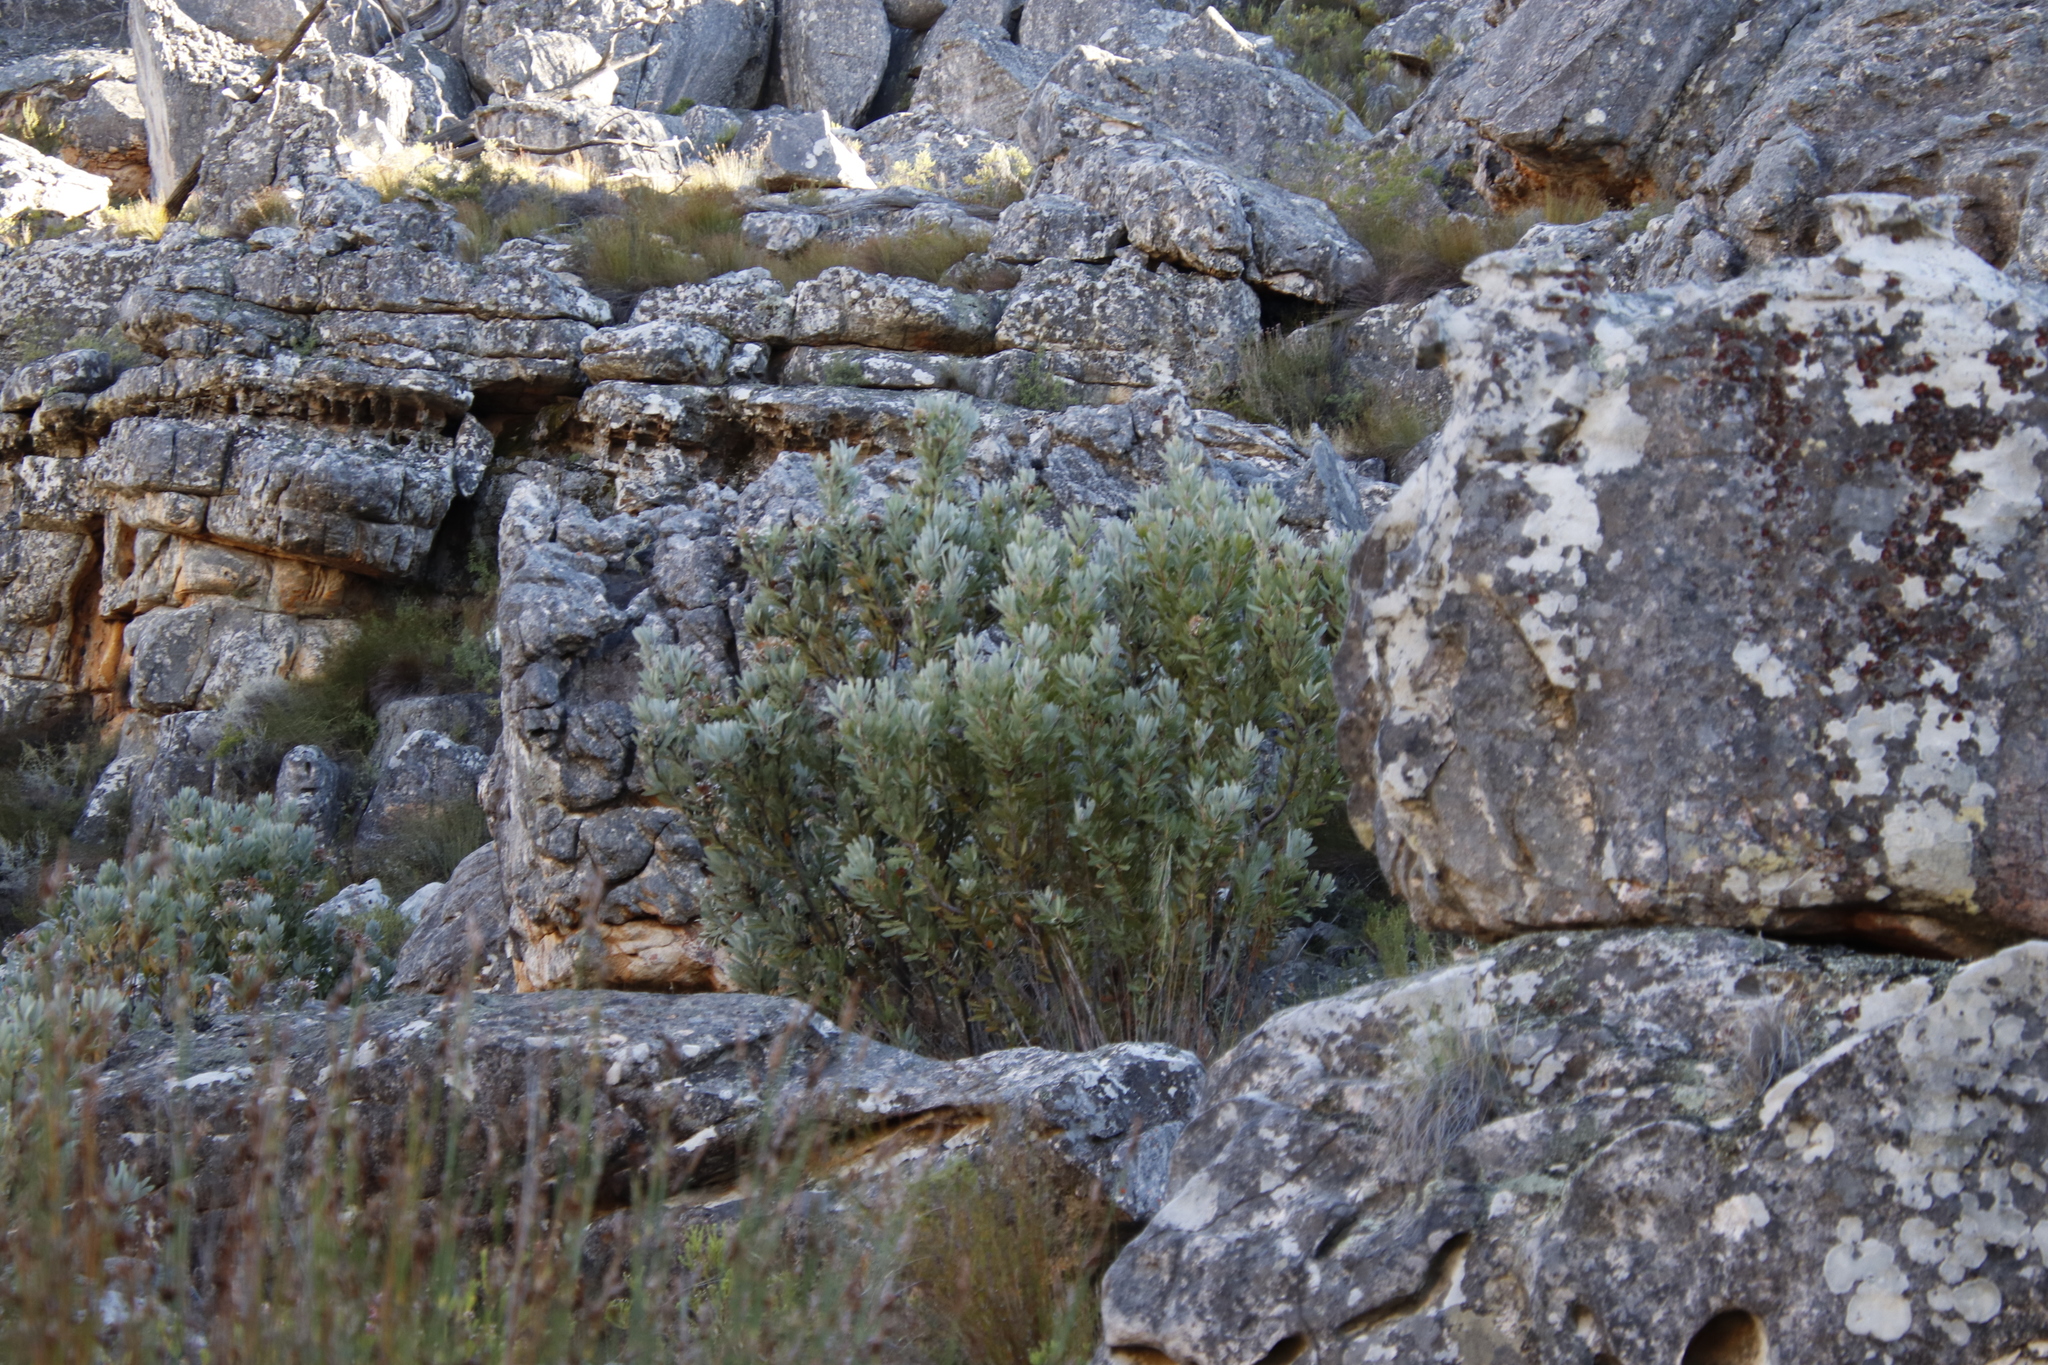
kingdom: Plantae
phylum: Tracheophyta
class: Magnoliopsida
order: Proteales
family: Proteaceae
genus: Protea
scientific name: Protea laurifolia
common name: Grey-leaf sugarbsh
